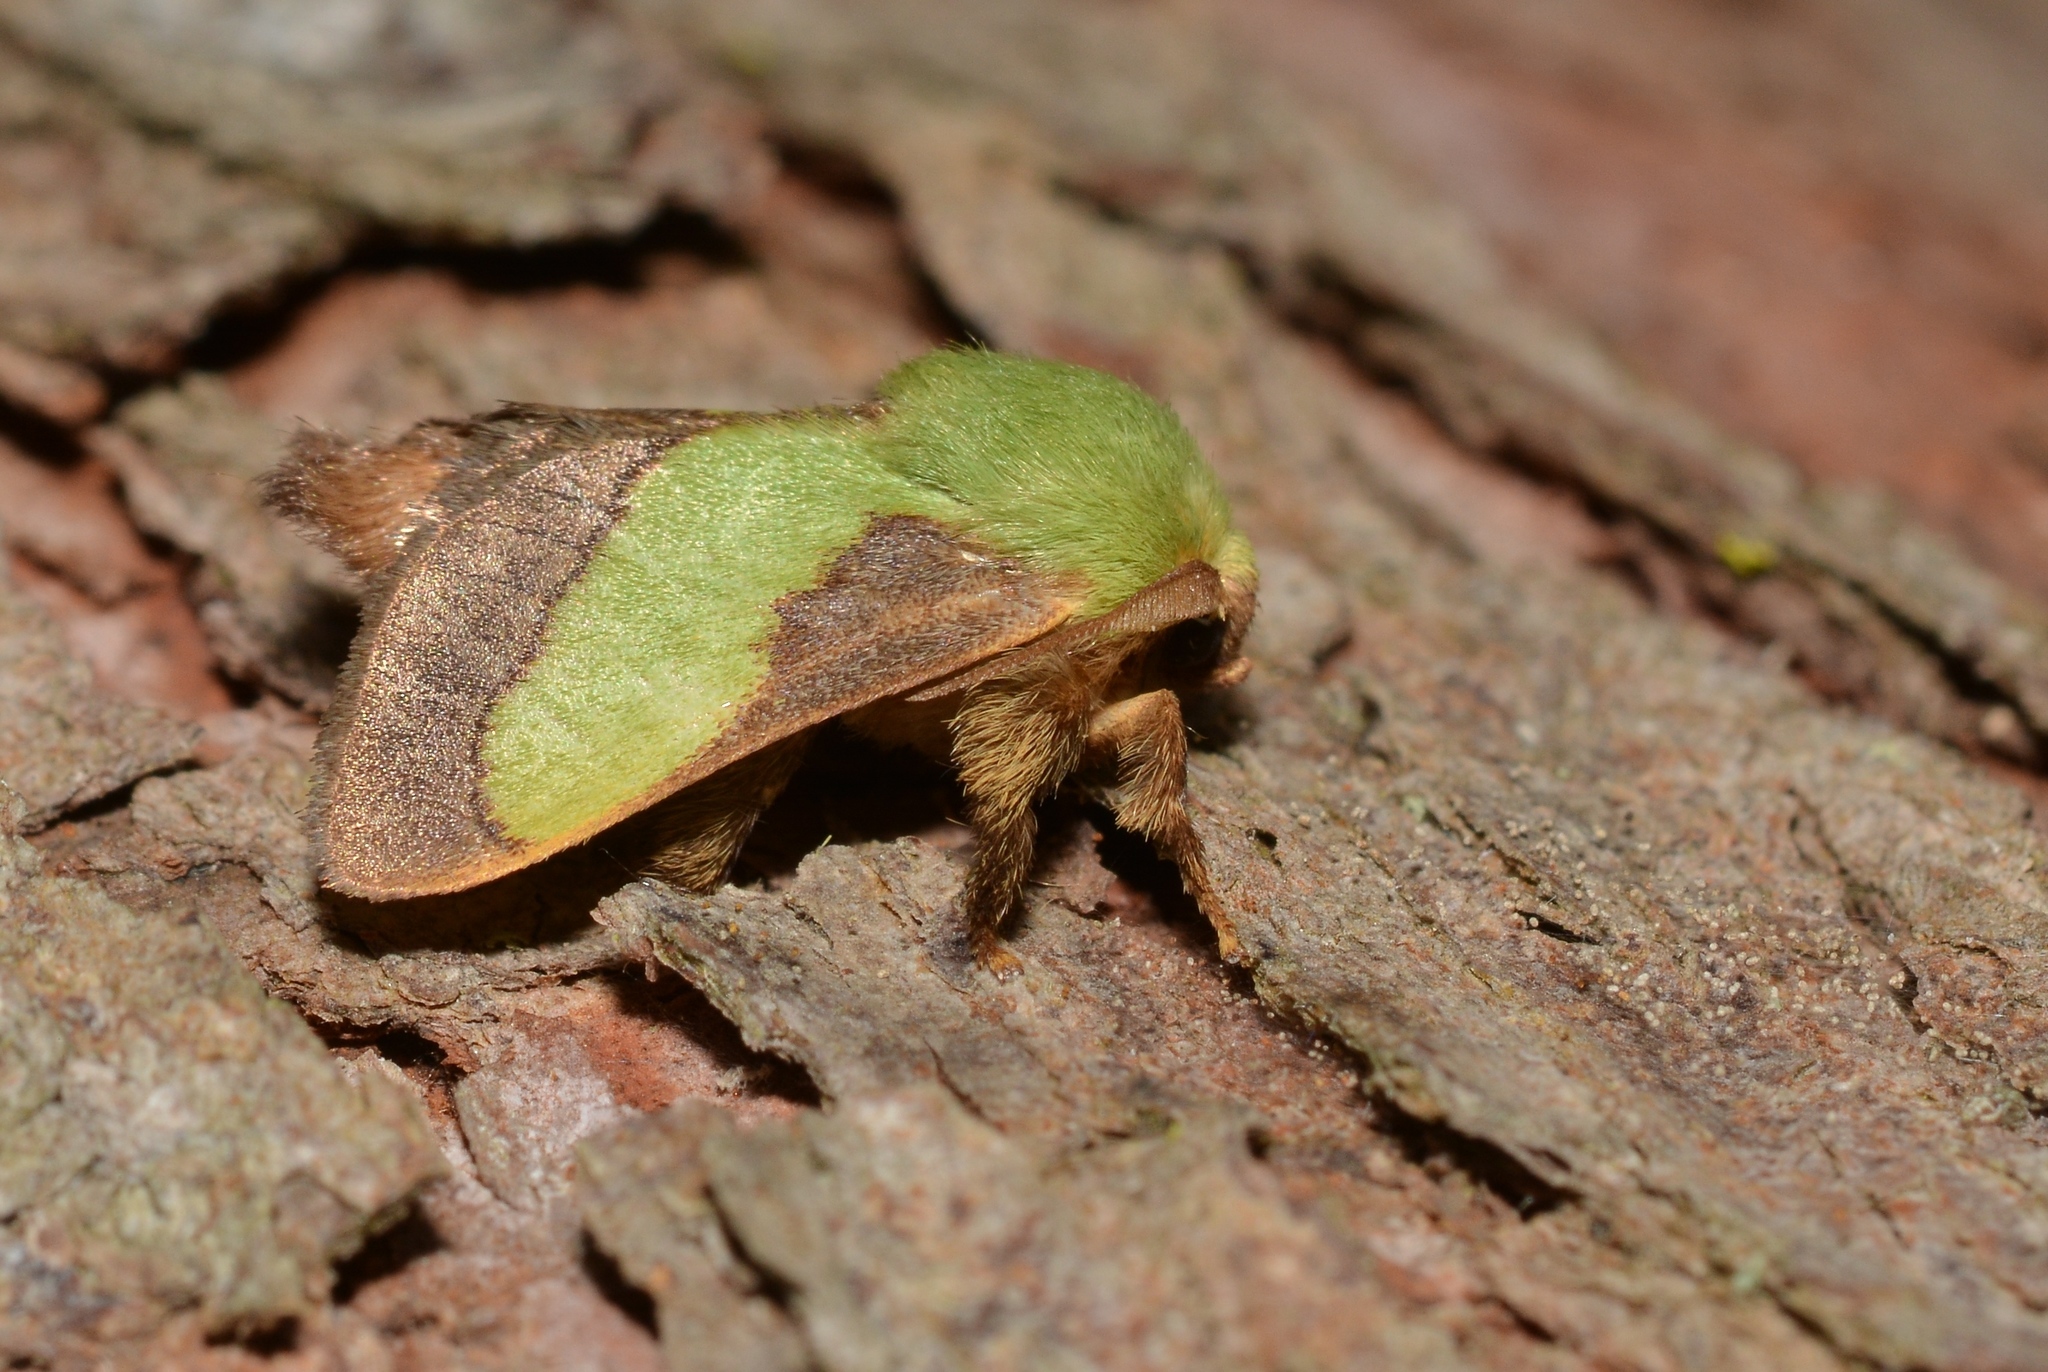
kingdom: Animalia
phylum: Arthropoda
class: Insecta
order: Lepidoptera
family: Limacodidae
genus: Parasa
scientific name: Parasa chloris
